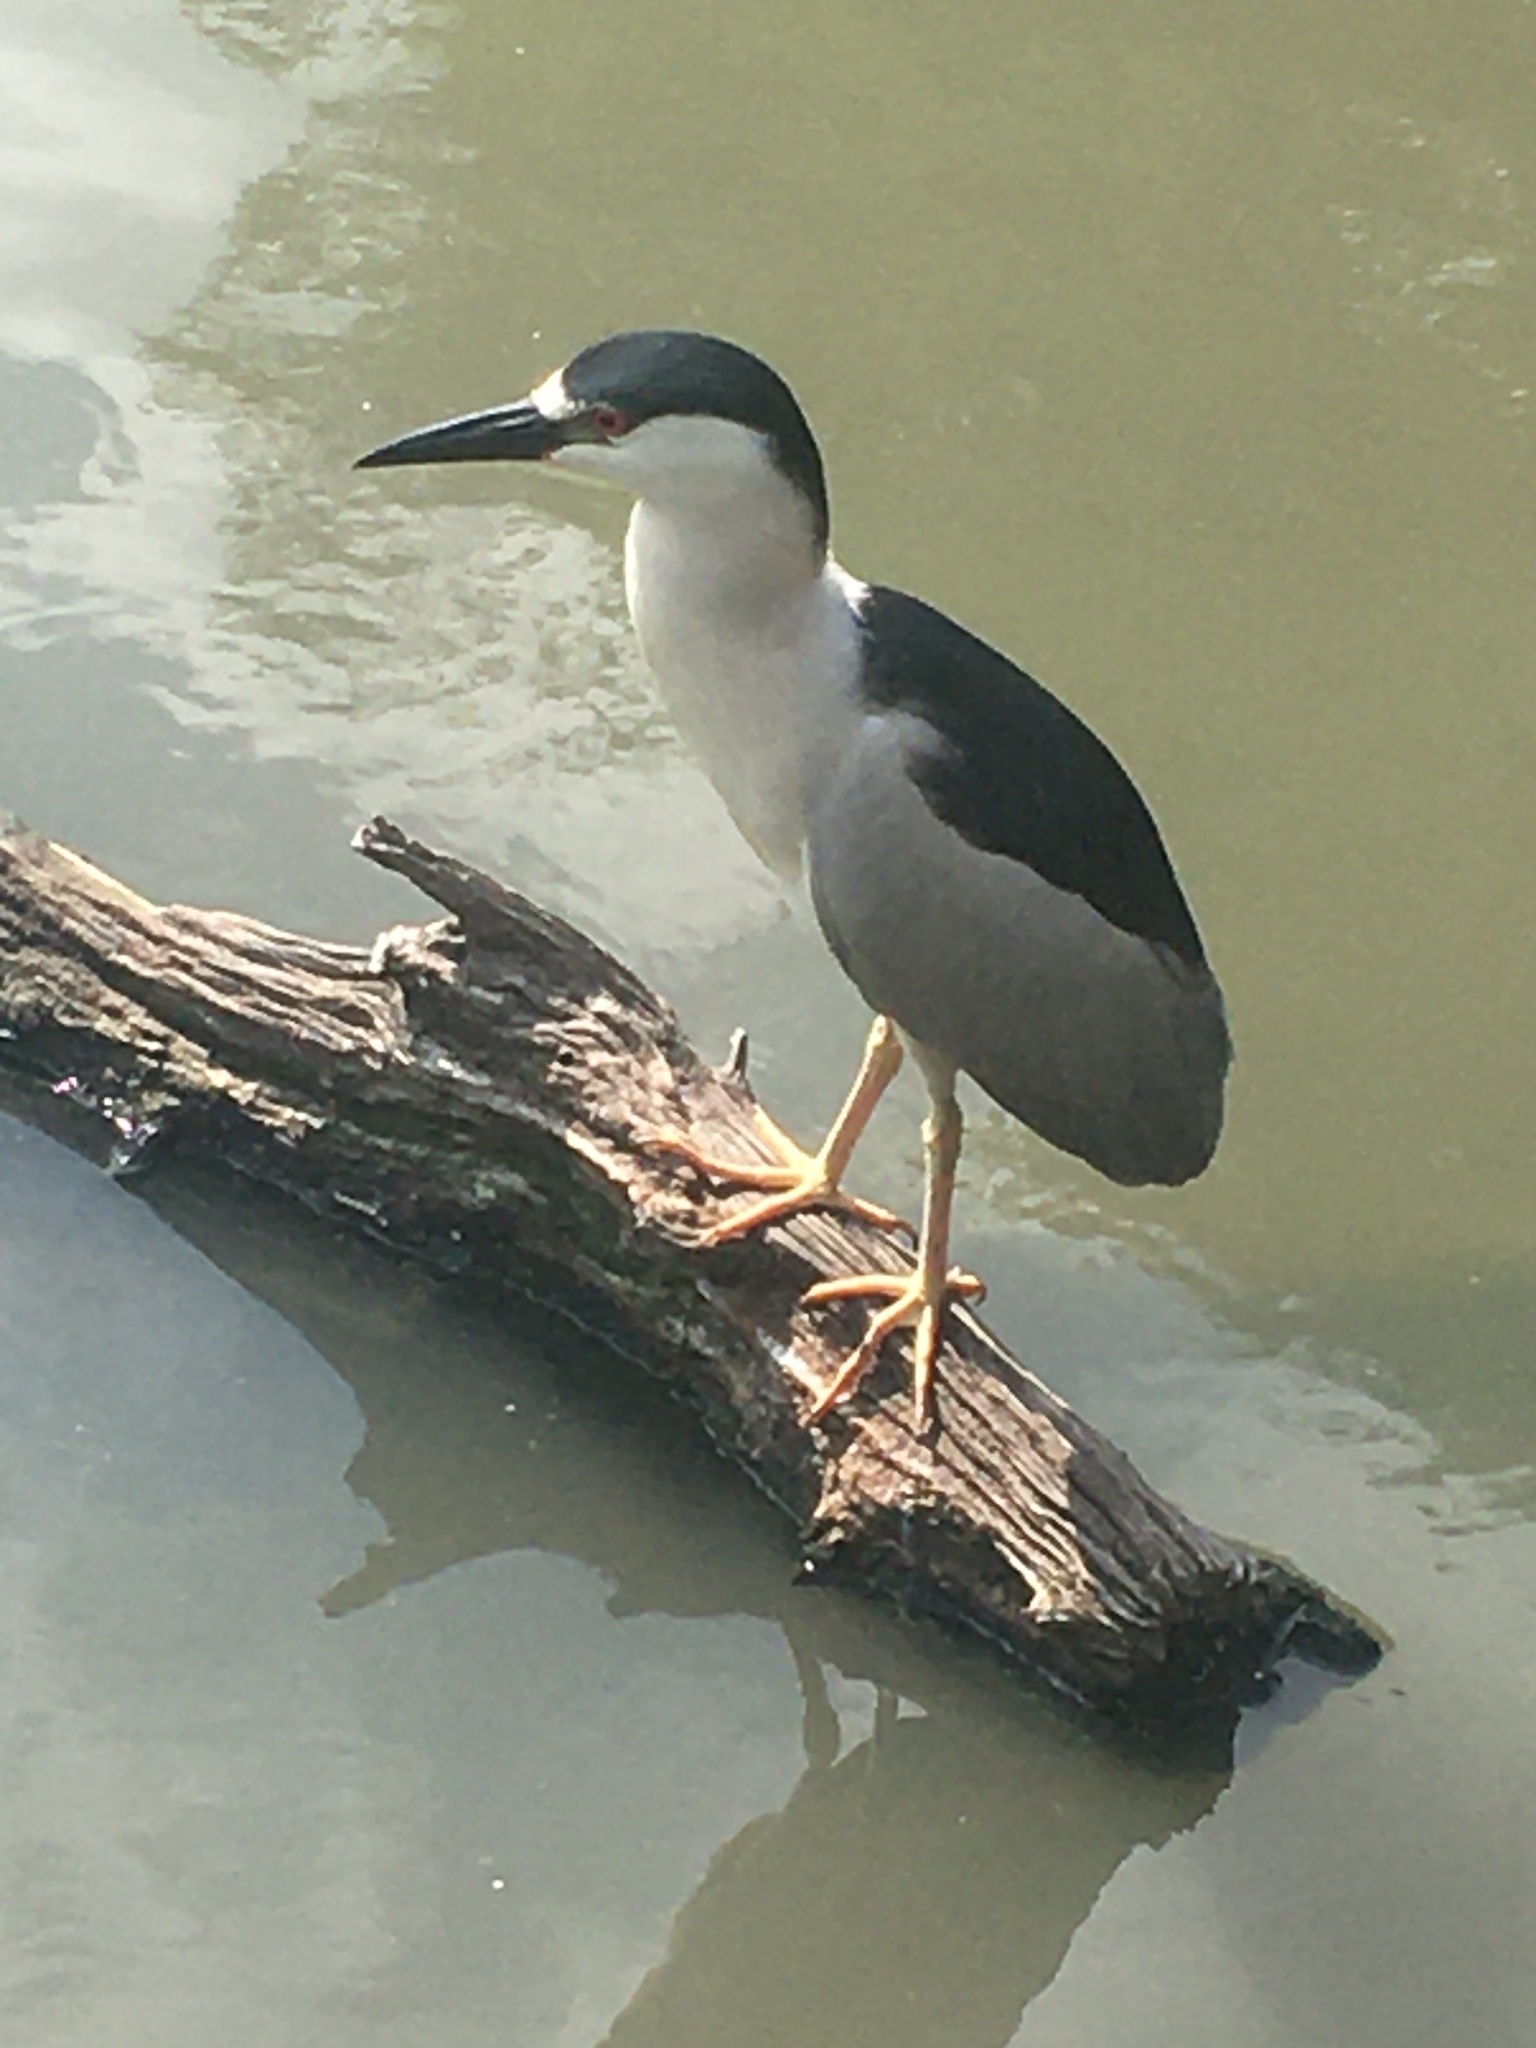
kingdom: Animalia
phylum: Chordata
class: Aves
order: Pelecaniformes
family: Ardeidae
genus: Nycticorax
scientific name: Nycticorax nycticorax
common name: Black-crowned night heron
